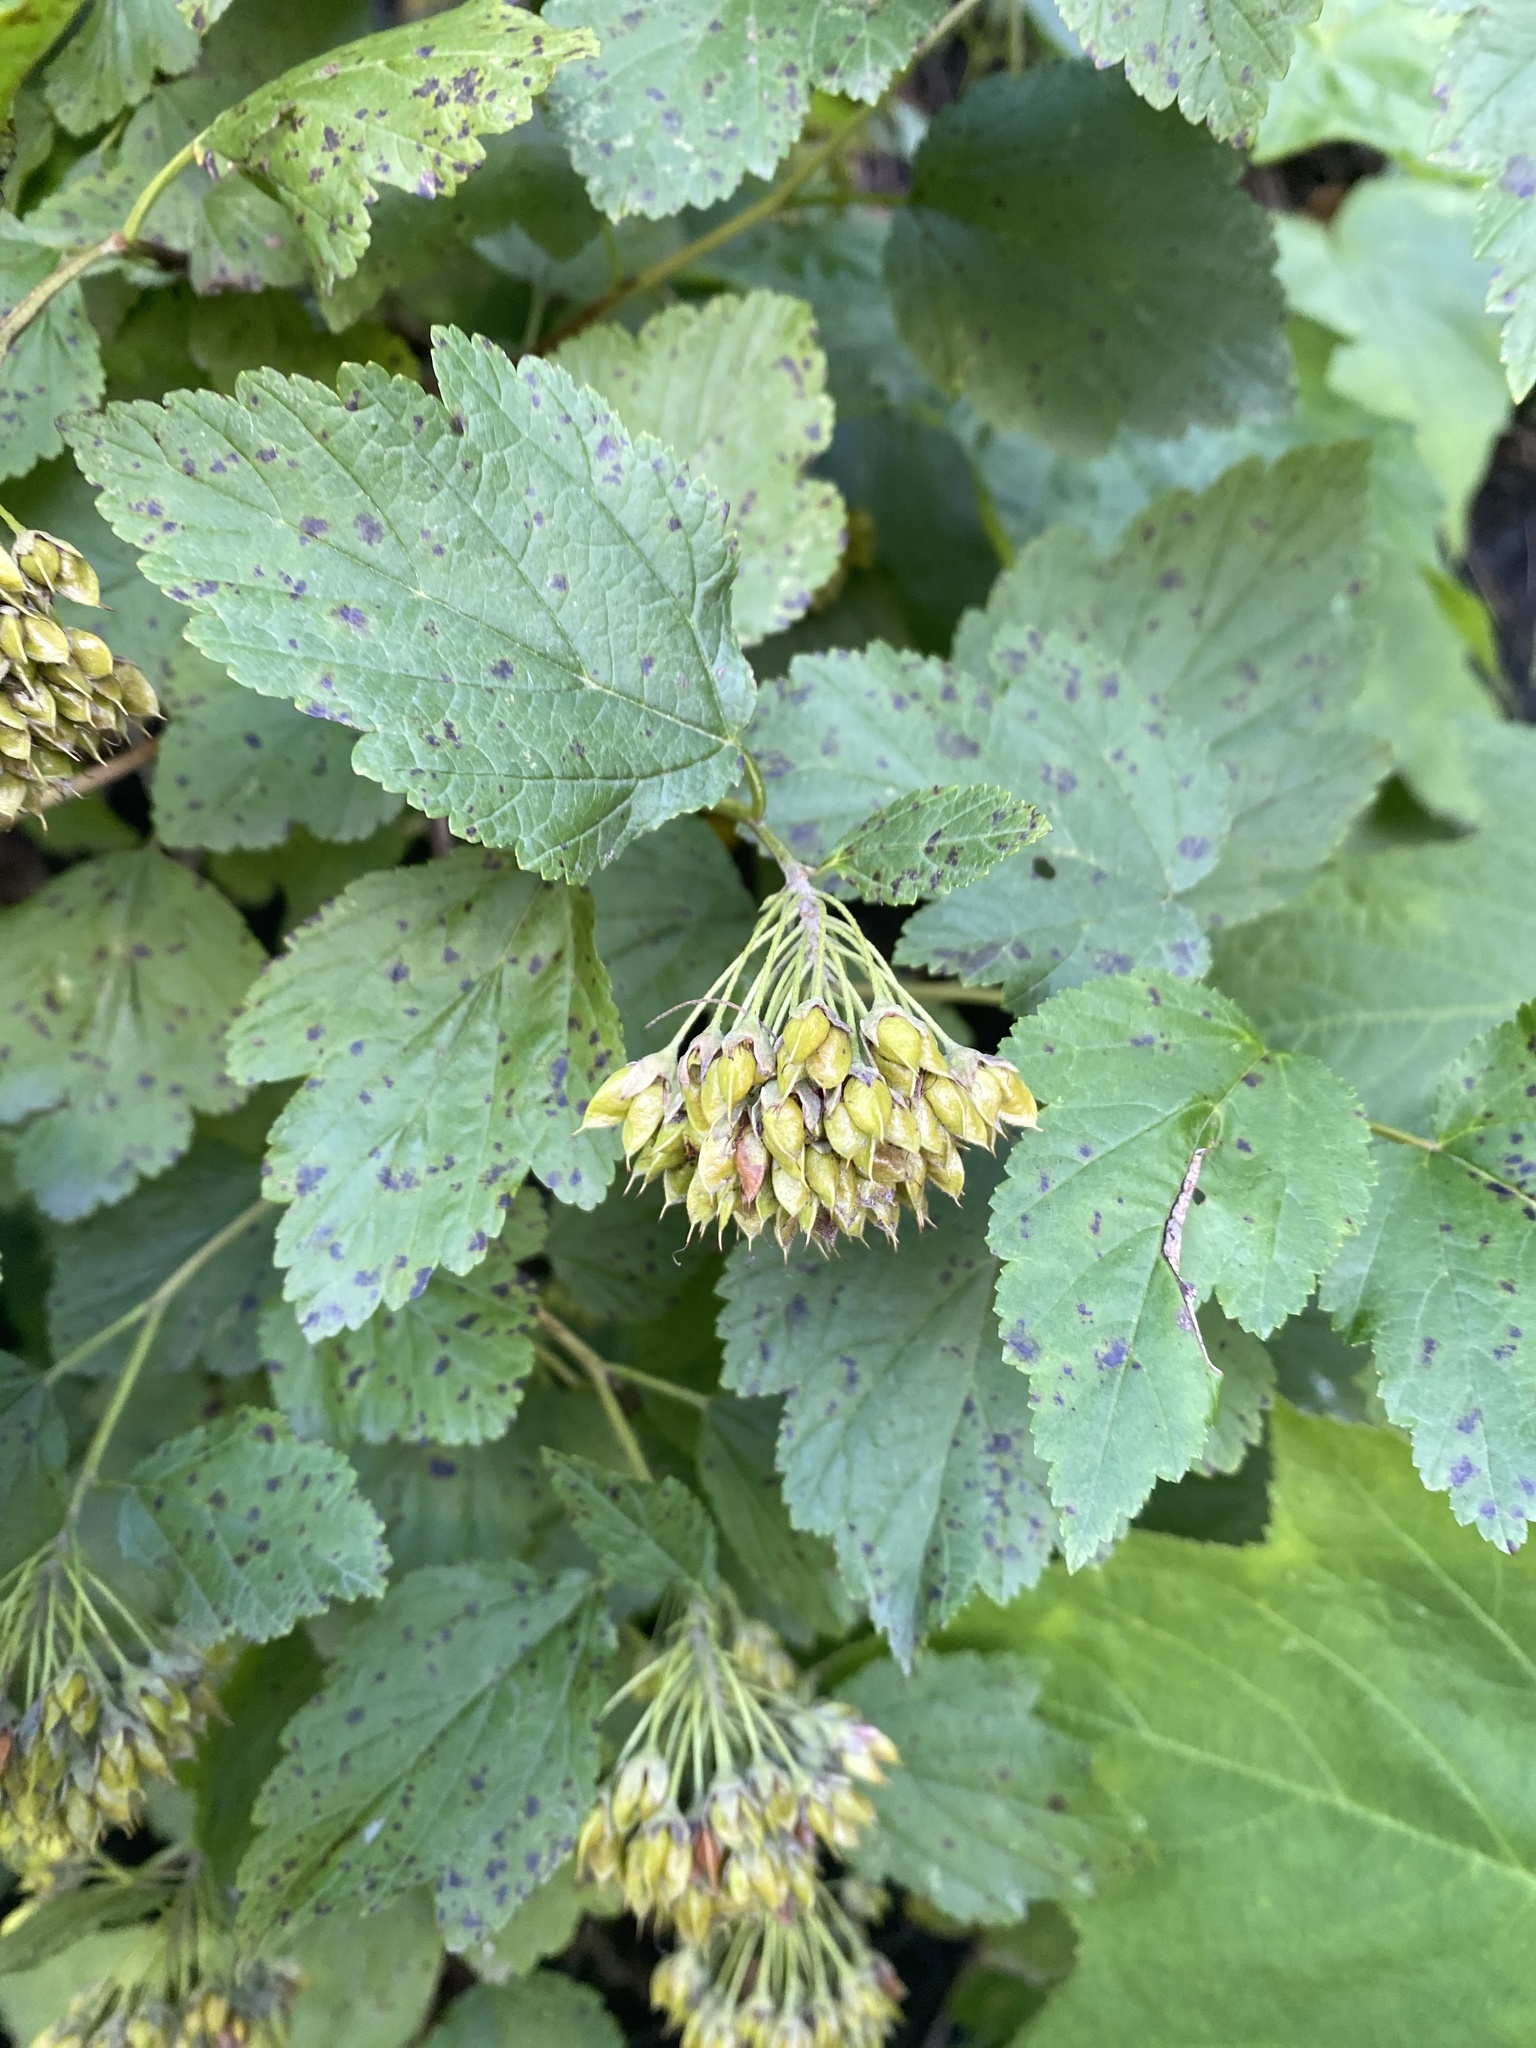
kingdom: Plantae
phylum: Tracheophyta
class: Magnoliopsida
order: Rosales
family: Rosaceae
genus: Physocarpus
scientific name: Physocarpus opulifolius
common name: Ninebark
